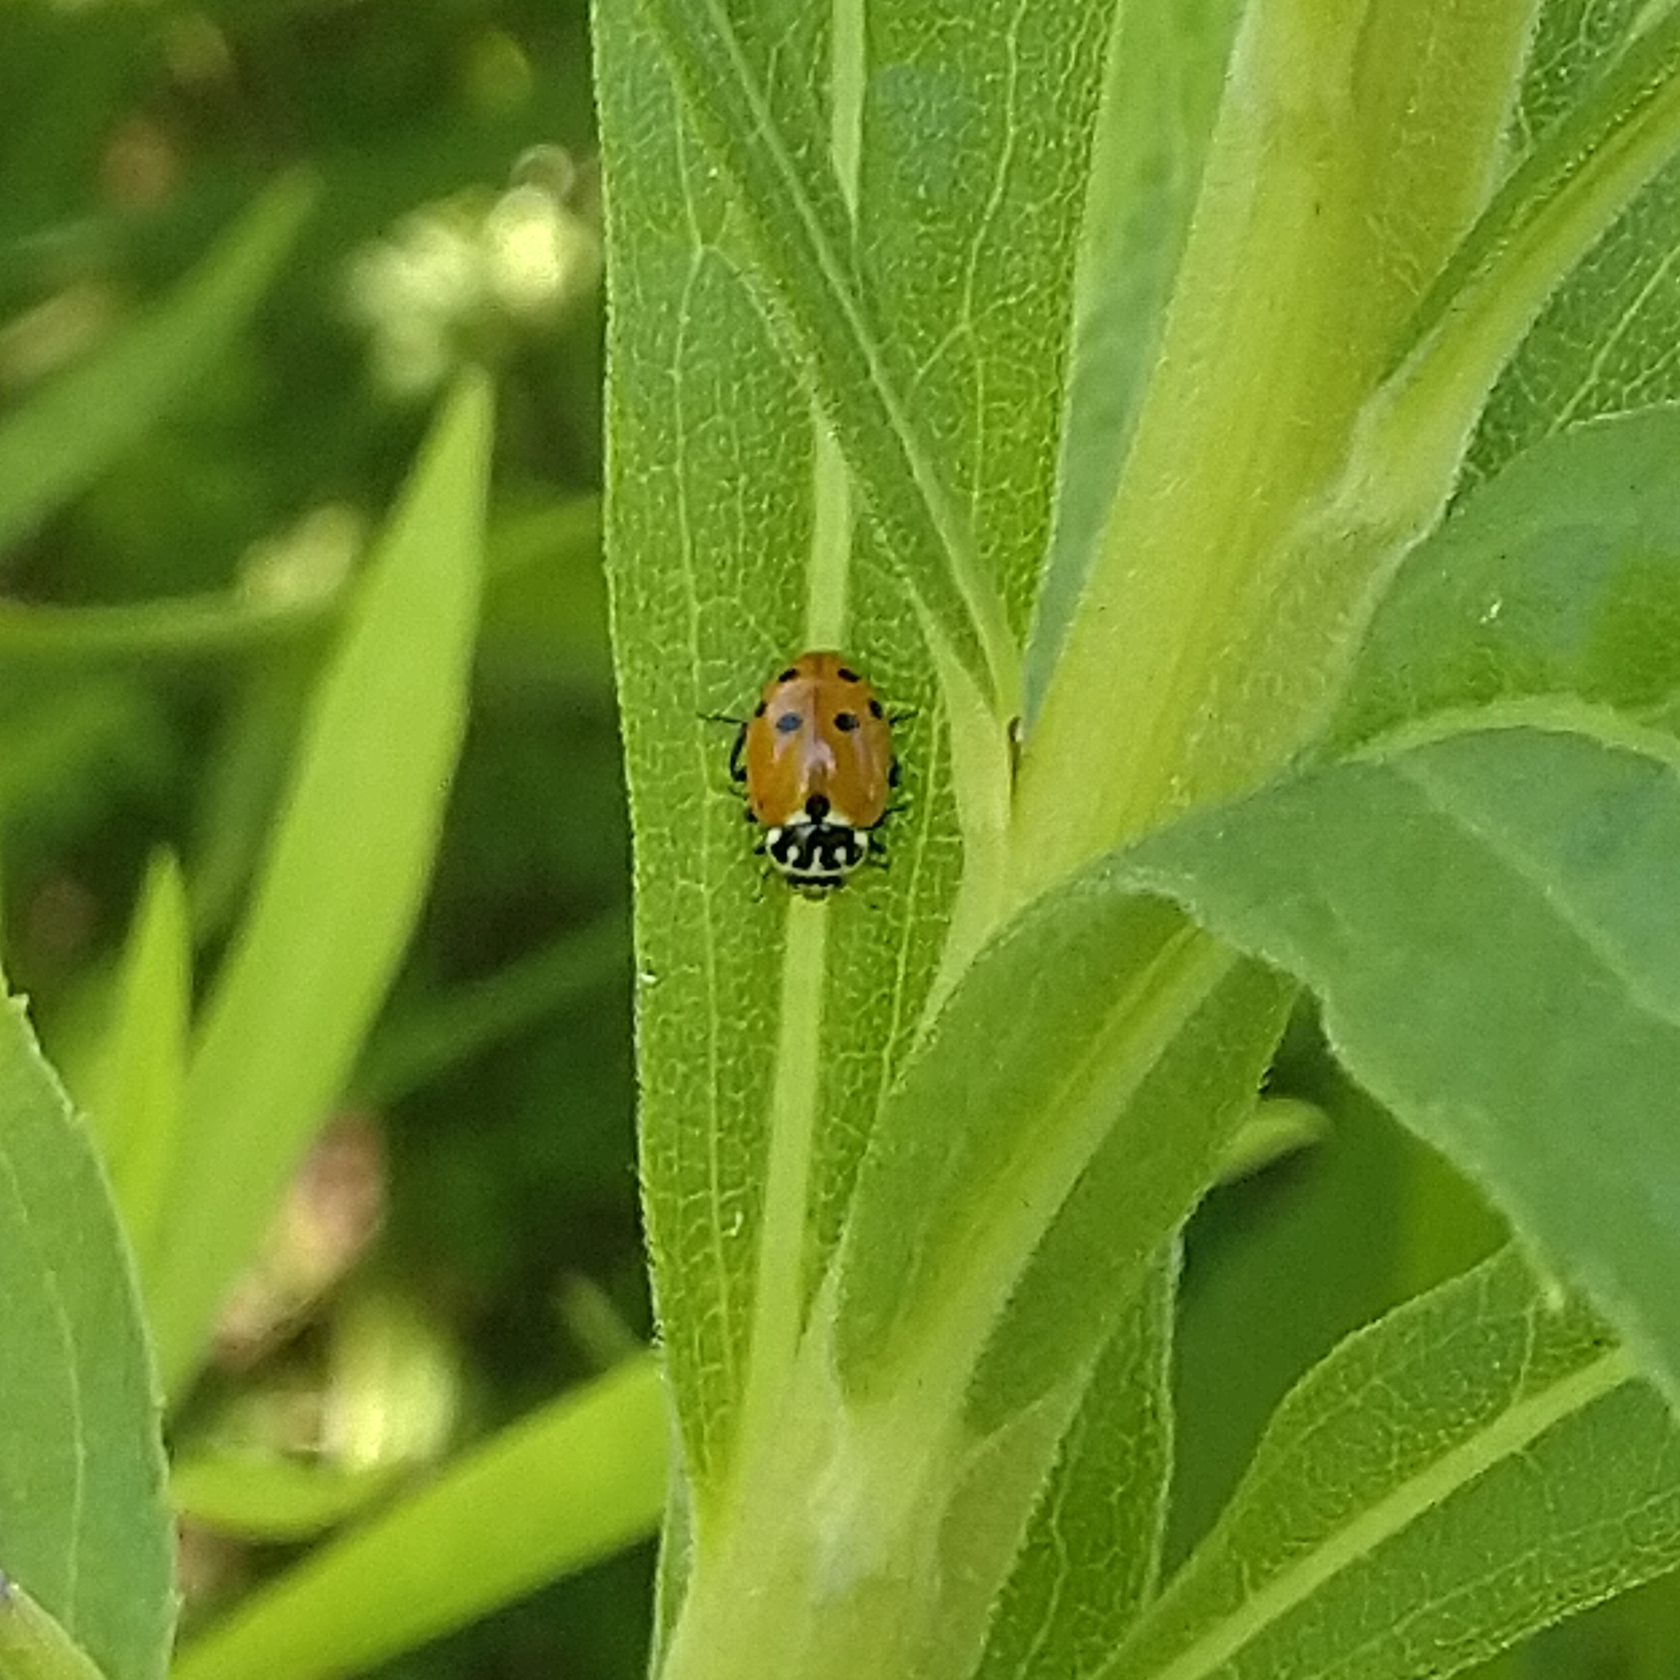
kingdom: Animalia
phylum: Arthropoda
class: Insecta
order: Coleoptera
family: Coccinellidae
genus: Hippodamia
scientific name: Hippodamia variegata
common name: Ladybird beetle
